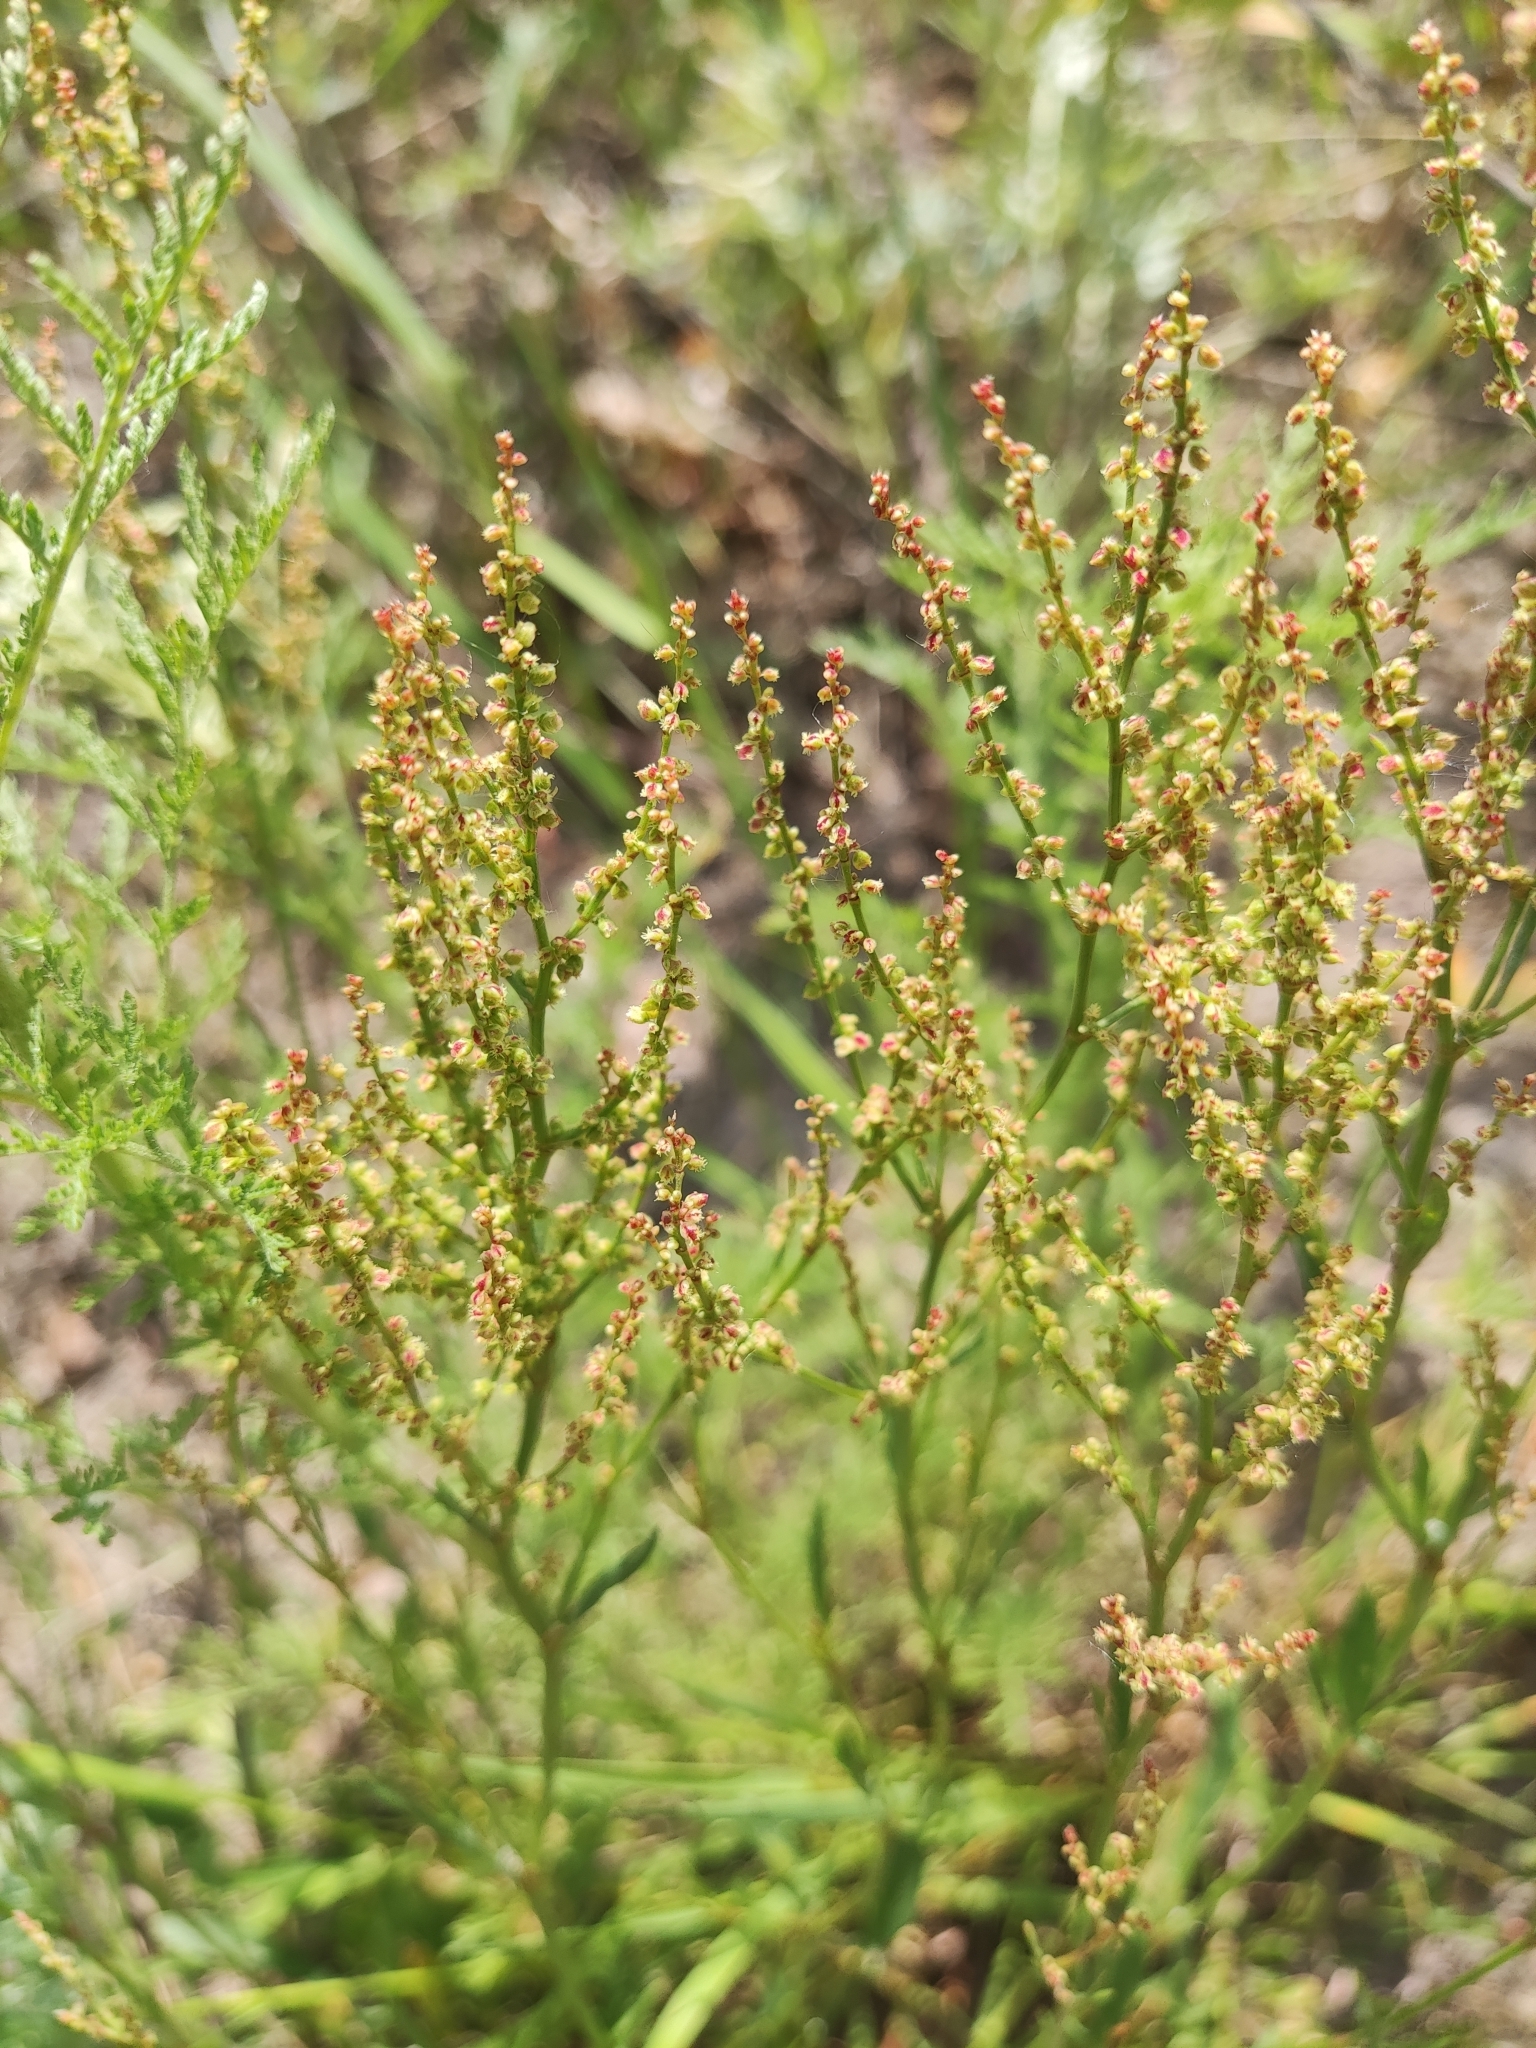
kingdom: Plantae
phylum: Tracheophyta
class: Magnoliopsida
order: Caryophyllales
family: Polygonaceae
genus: Rumex
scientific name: Rumex acetosella
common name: Common sheep sorrel
